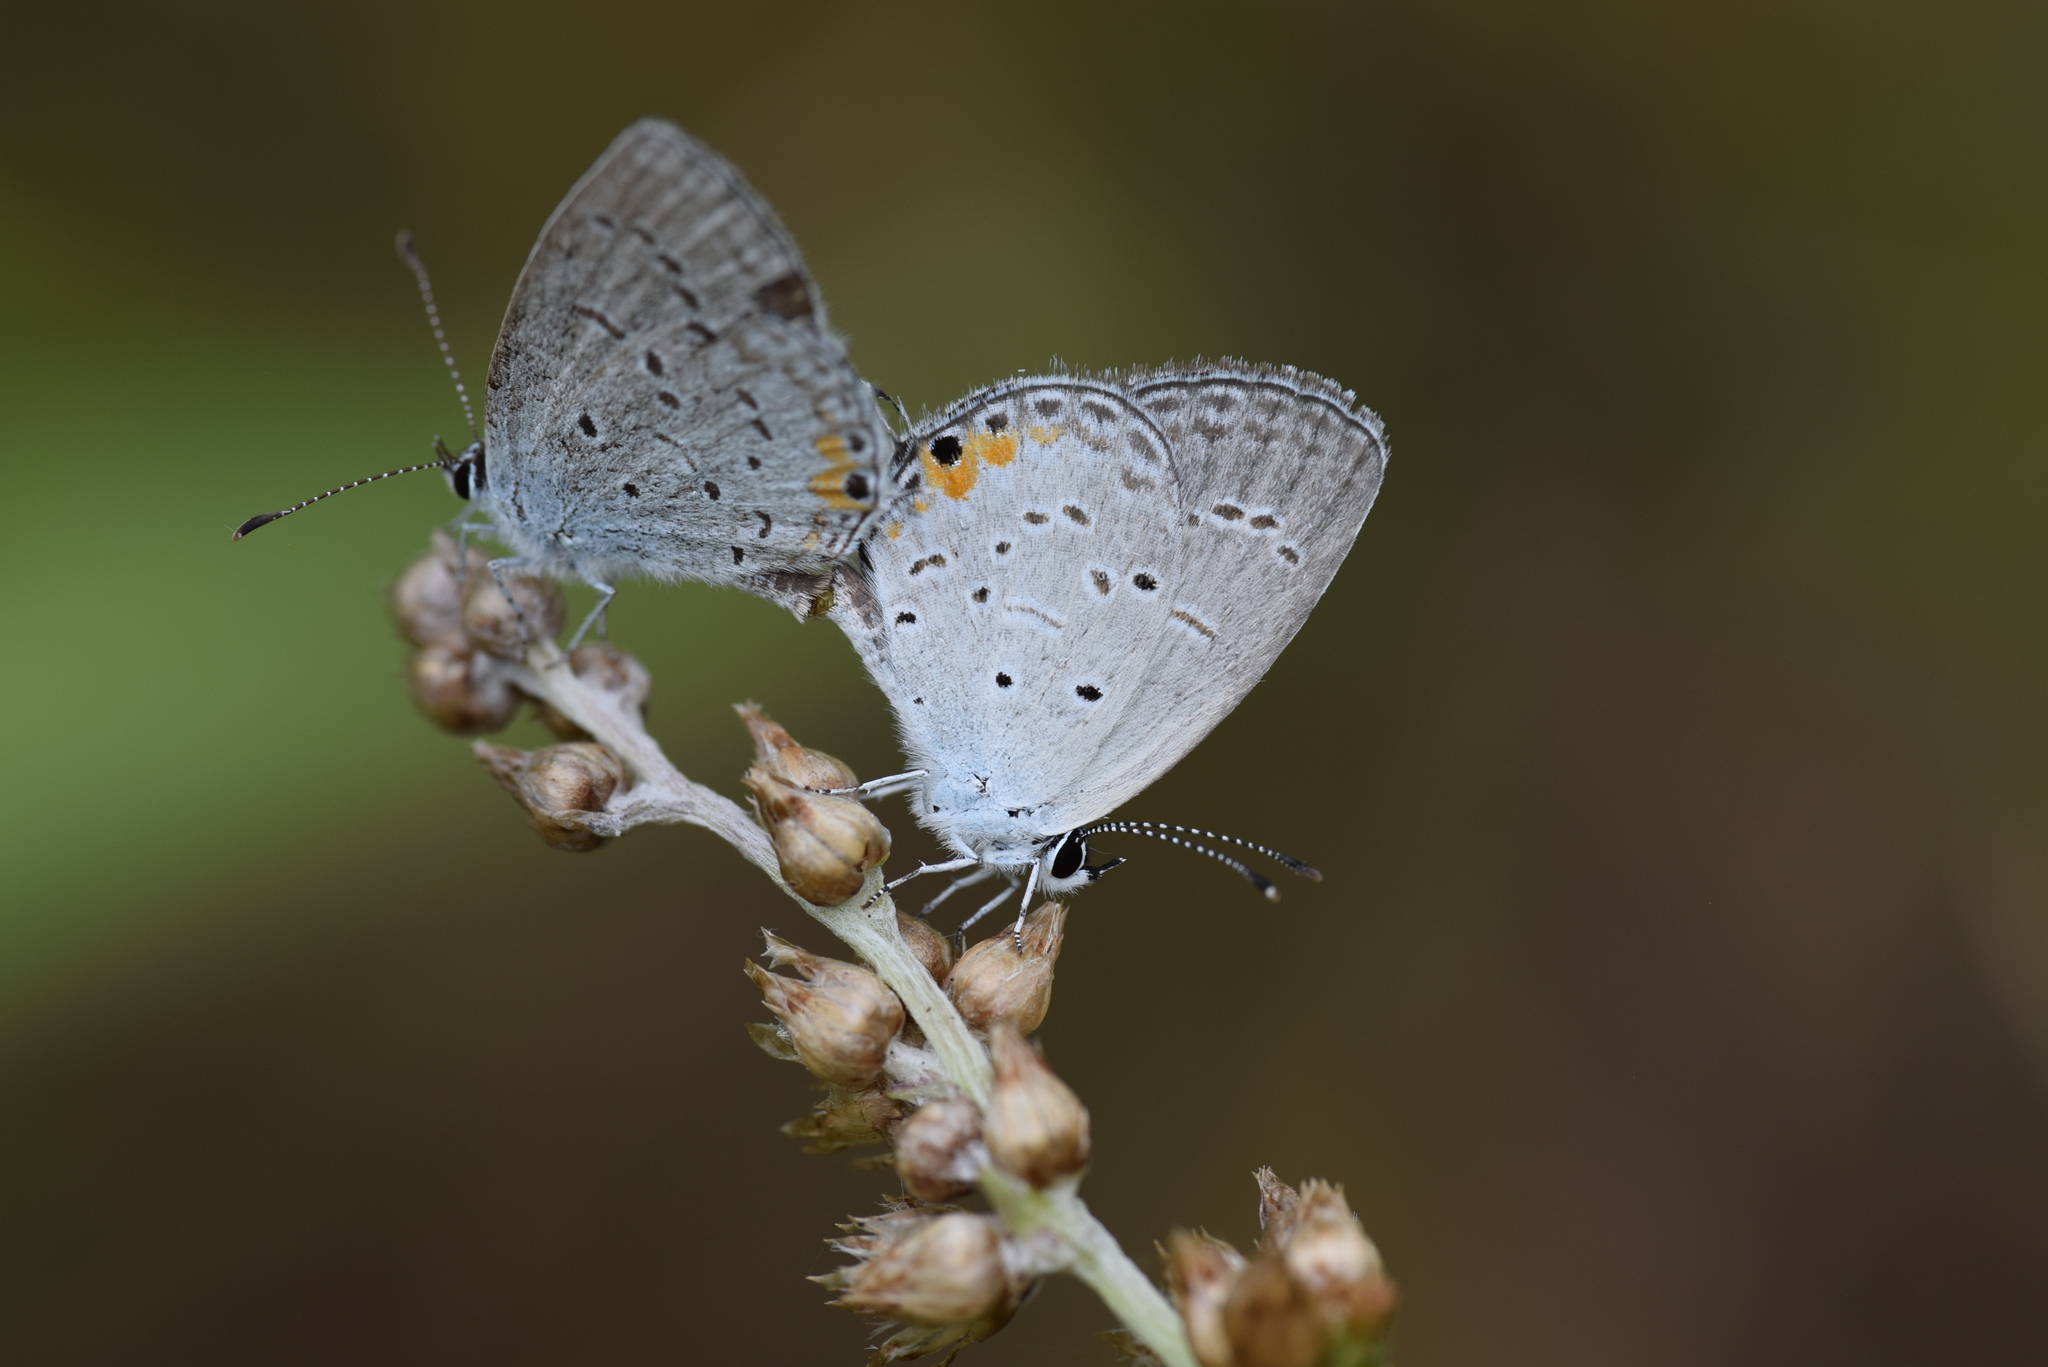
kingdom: Animalia
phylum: Arthropoda
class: Insecta
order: Lepidoptera
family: Lycaenidae
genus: Elkalyce
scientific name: Elkalyce comyntas
